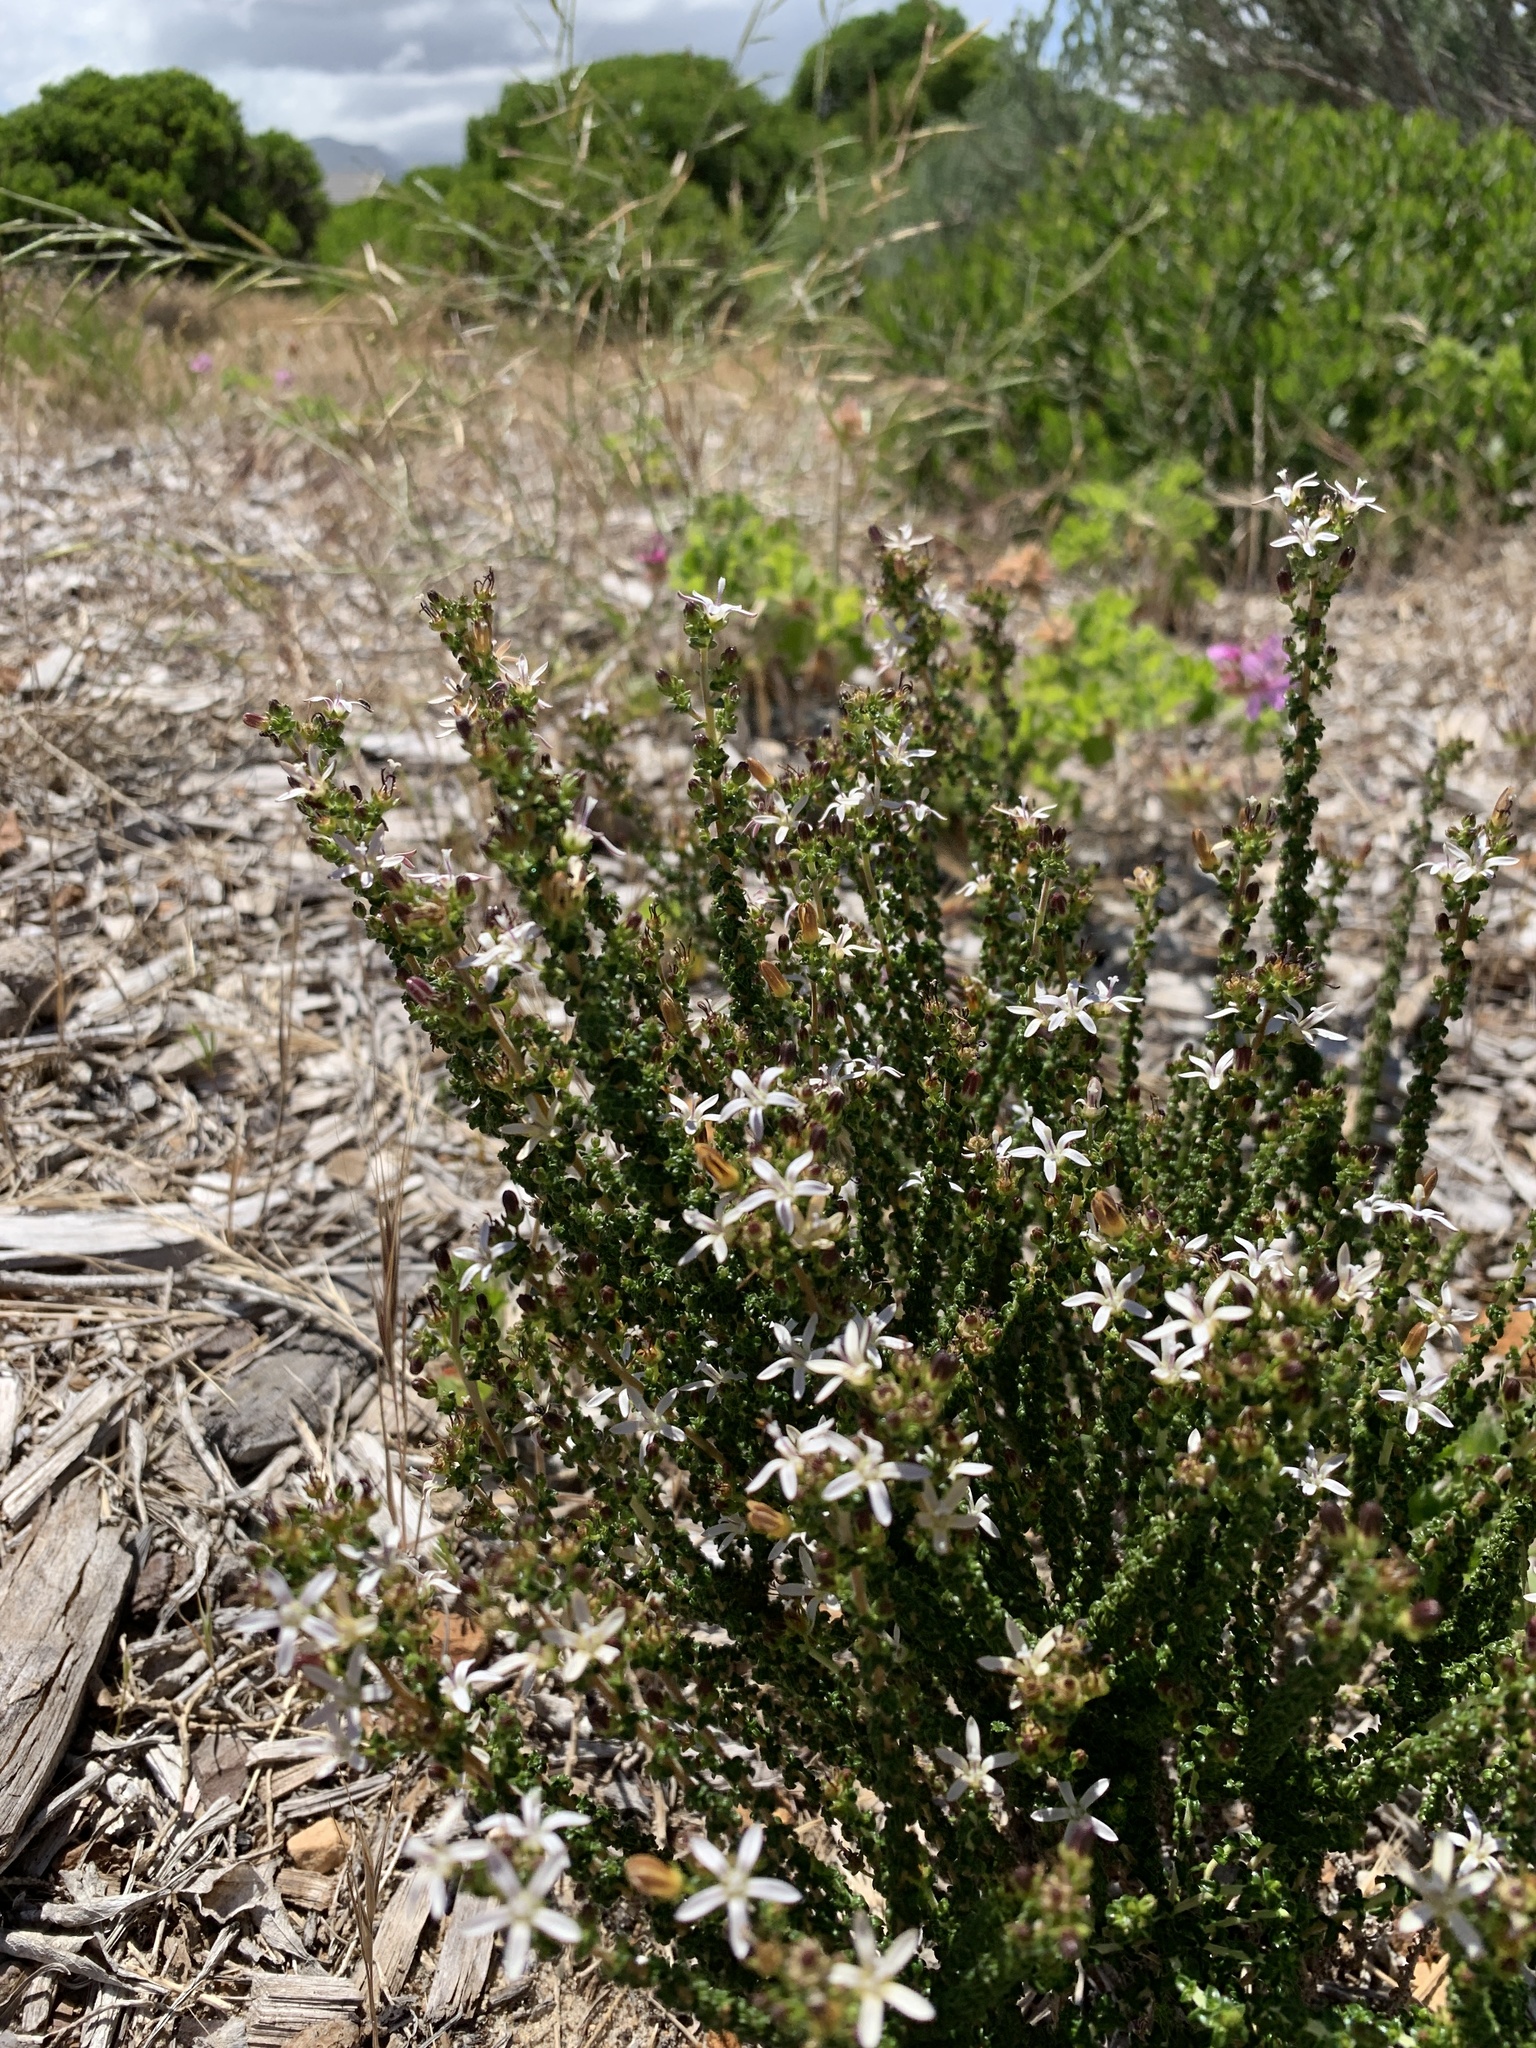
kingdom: Plantae
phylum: Tracheophyta
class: Magnoliopsida
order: Asterales
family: Campanulaceae
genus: Wahlenbergia
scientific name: Wahlenbergia tenella
